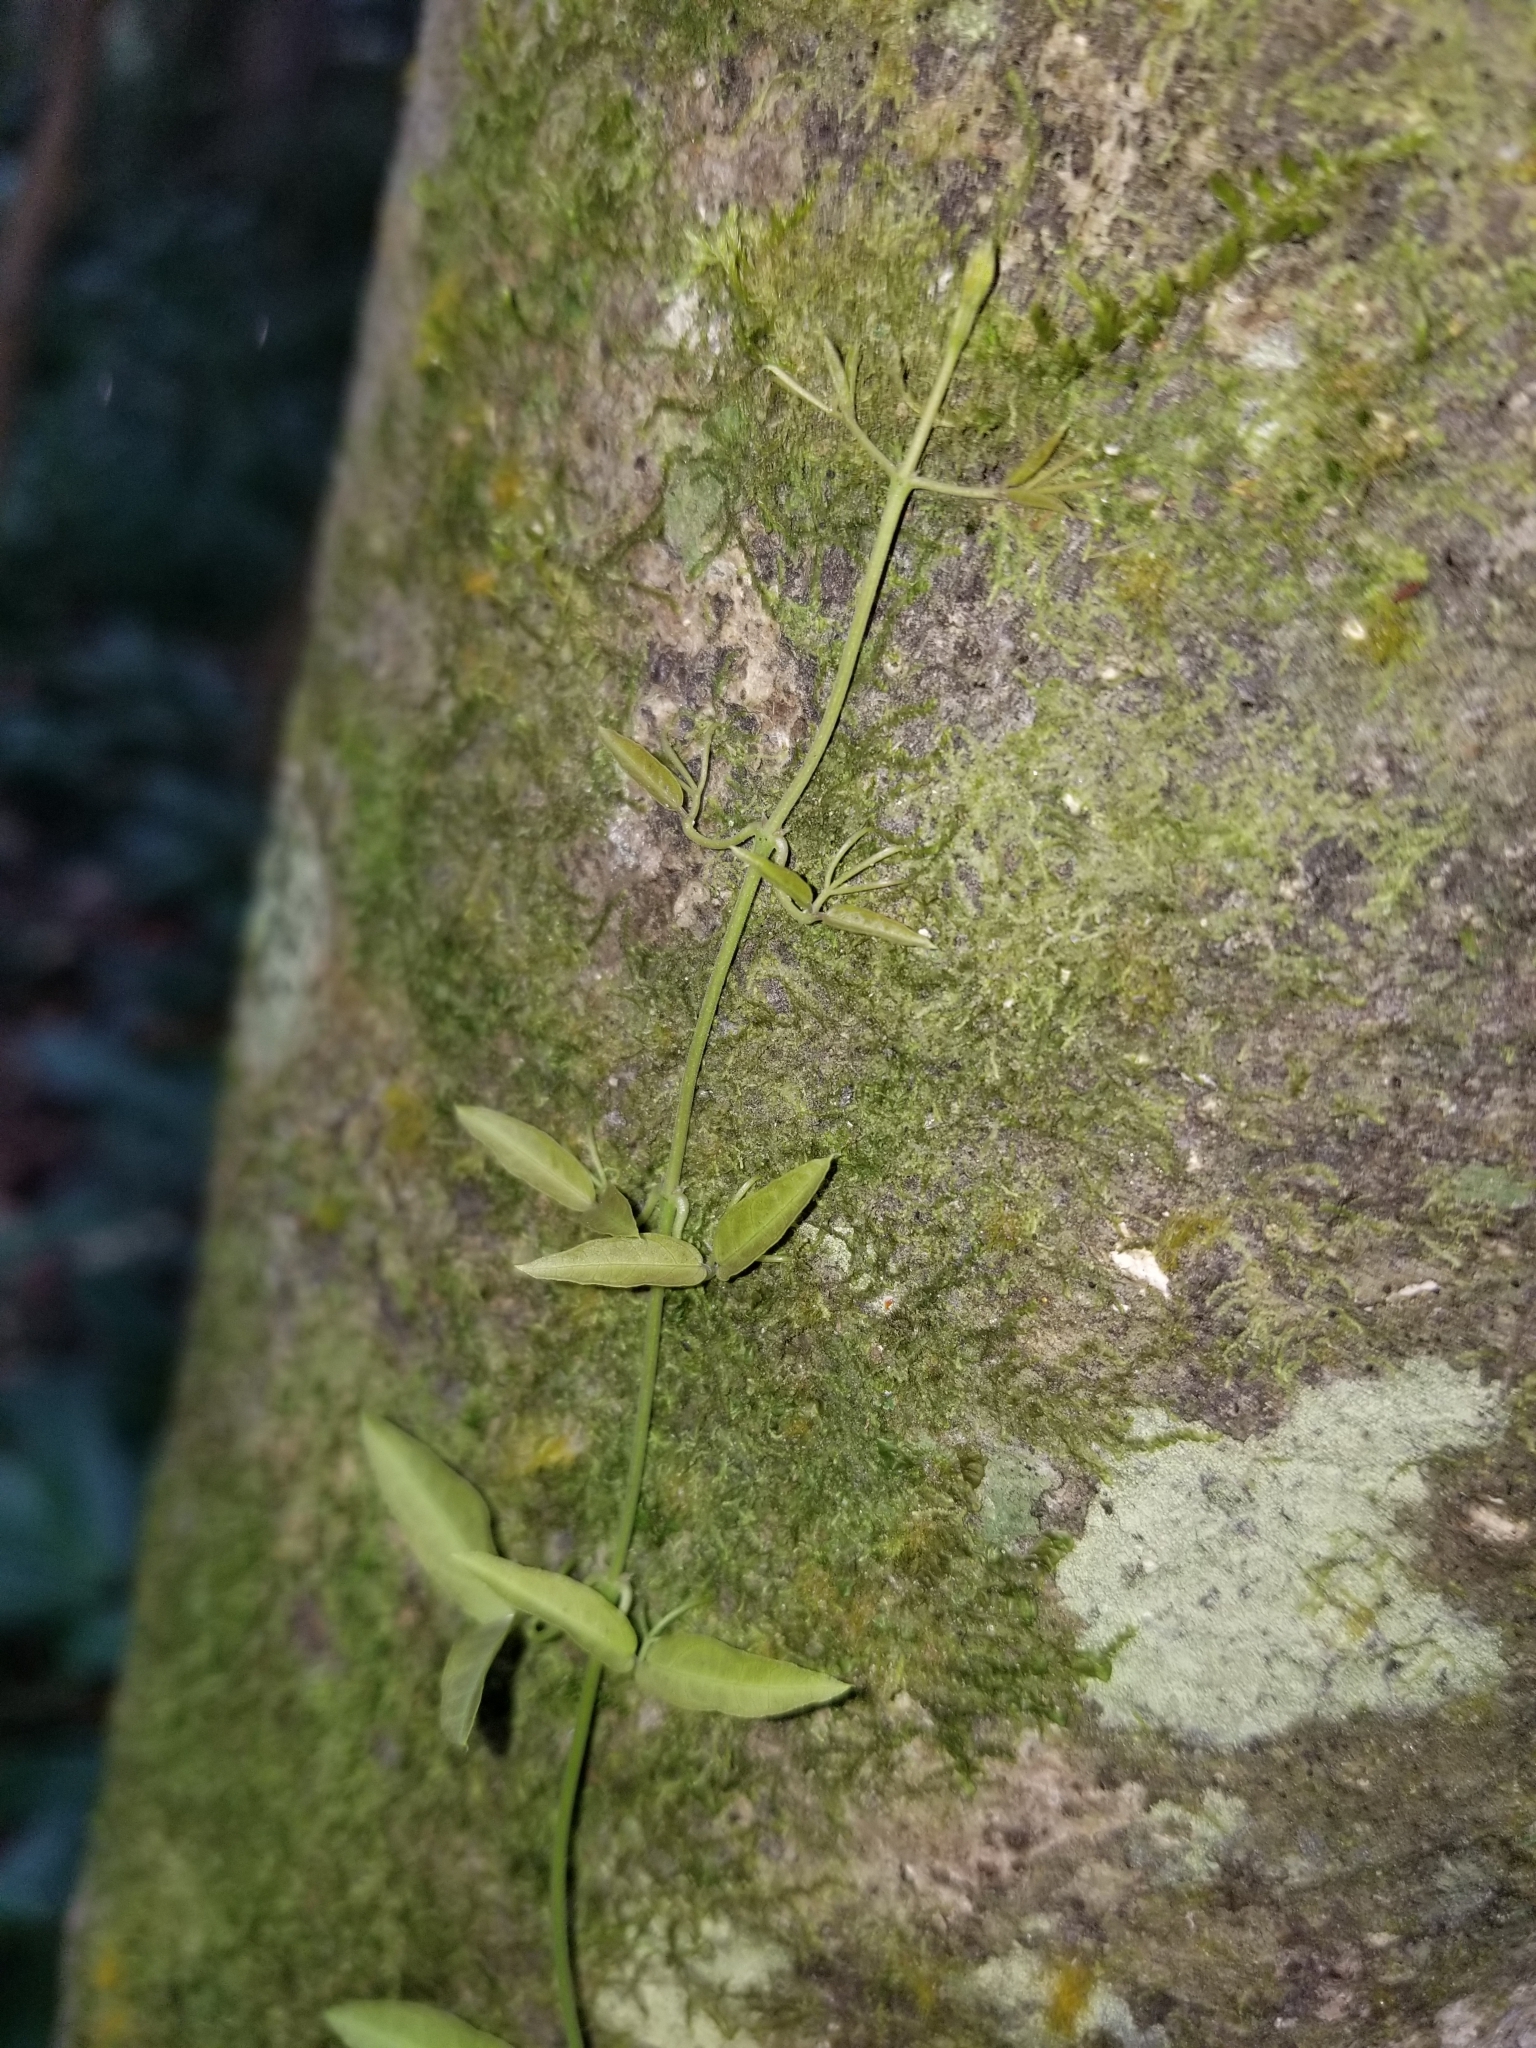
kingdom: Plantae
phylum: Tracheophyta
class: Magnoliopsida
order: Lamiales
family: Bignoniaceae
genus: Dolichandra
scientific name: Dolichandra unguis-cati
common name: Catclaw vine
